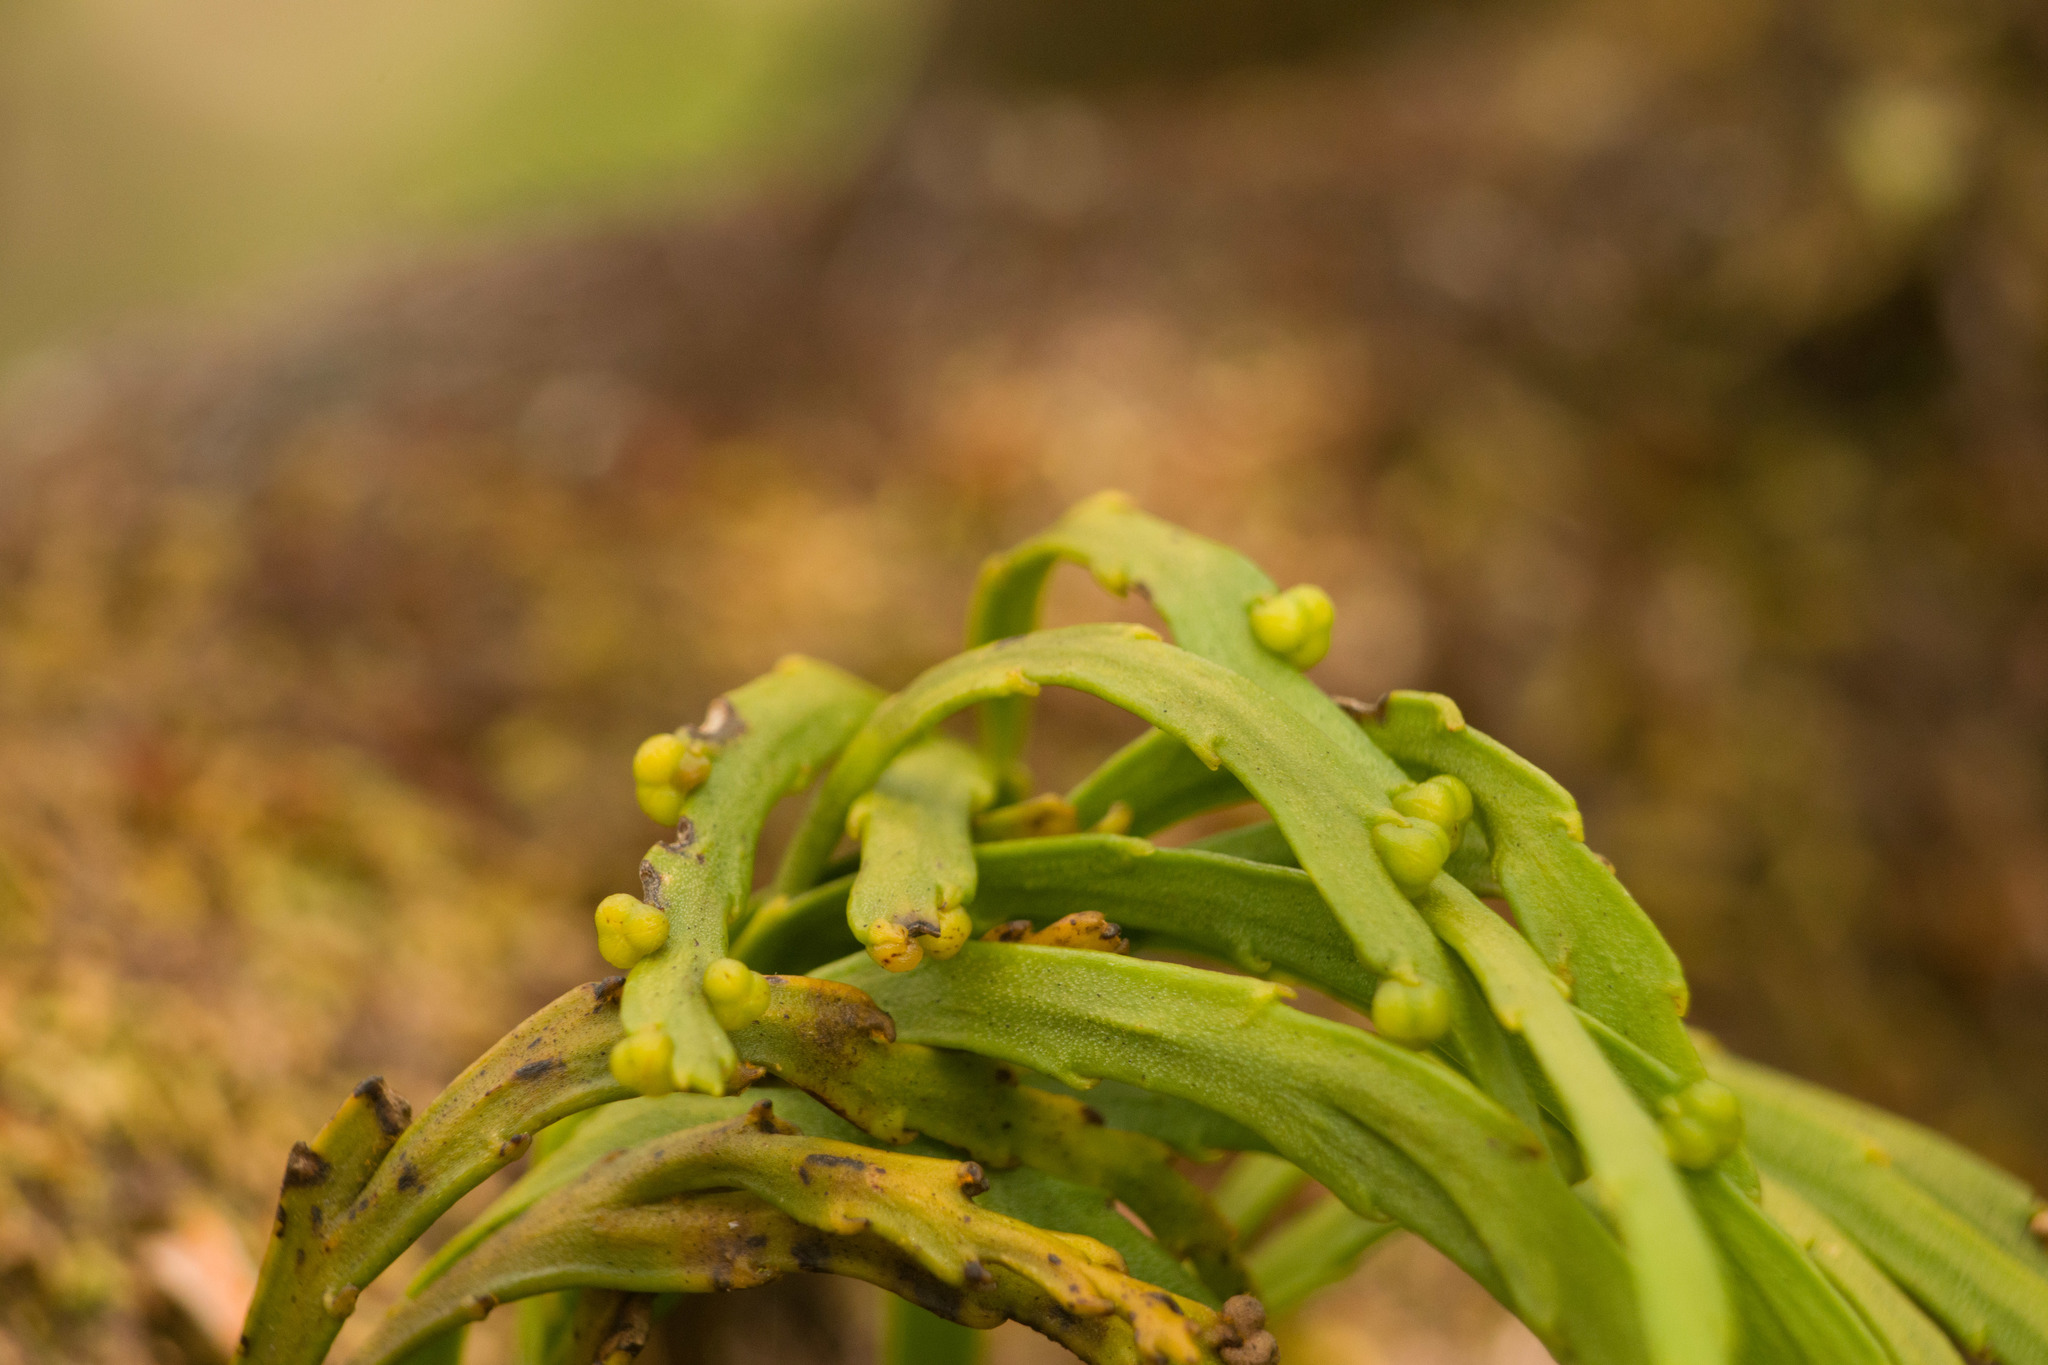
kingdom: Plantae
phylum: Tracheophyta
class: Polypodiopsida
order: Psilotales
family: Psilotaceae
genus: Psilotum
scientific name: Psilotum complanatum
